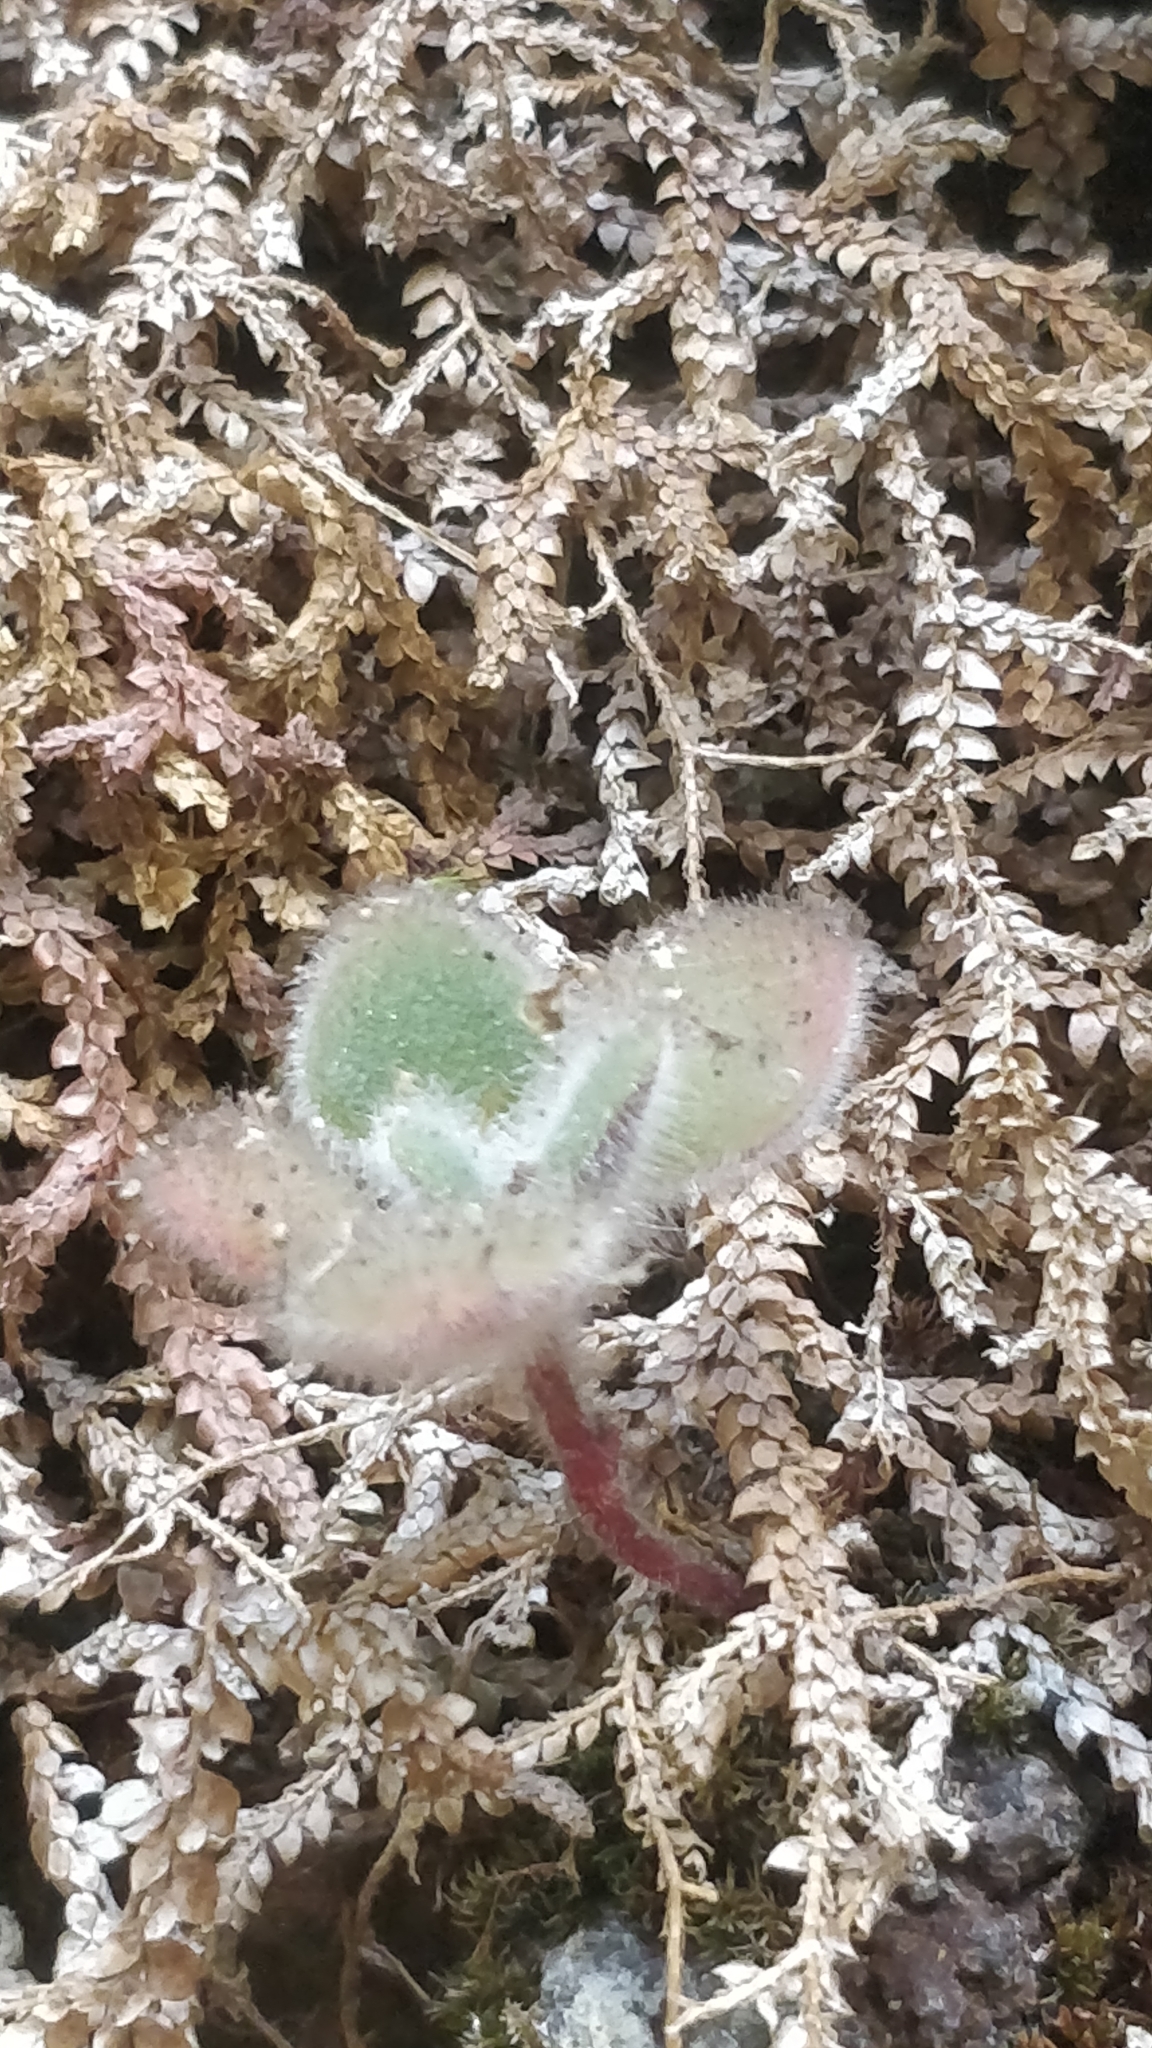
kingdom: Plantae
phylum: Tracheophyta
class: Magnoliopsida
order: Saxifragales
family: Crassulaceae
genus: Aichryson
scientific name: Aichryson villosum
